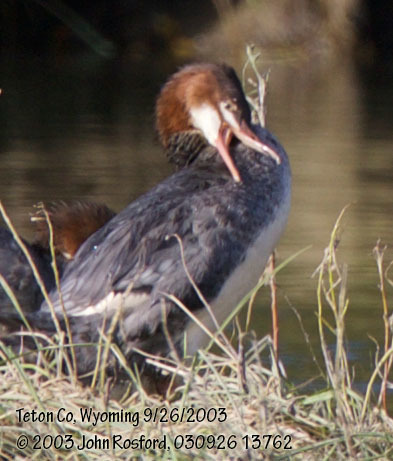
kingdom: Animalia
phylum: Chordata
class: Aves
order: Anseriformes
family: Anatidae
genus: Mergus
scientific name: Mergus merganser
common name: Common merganser
